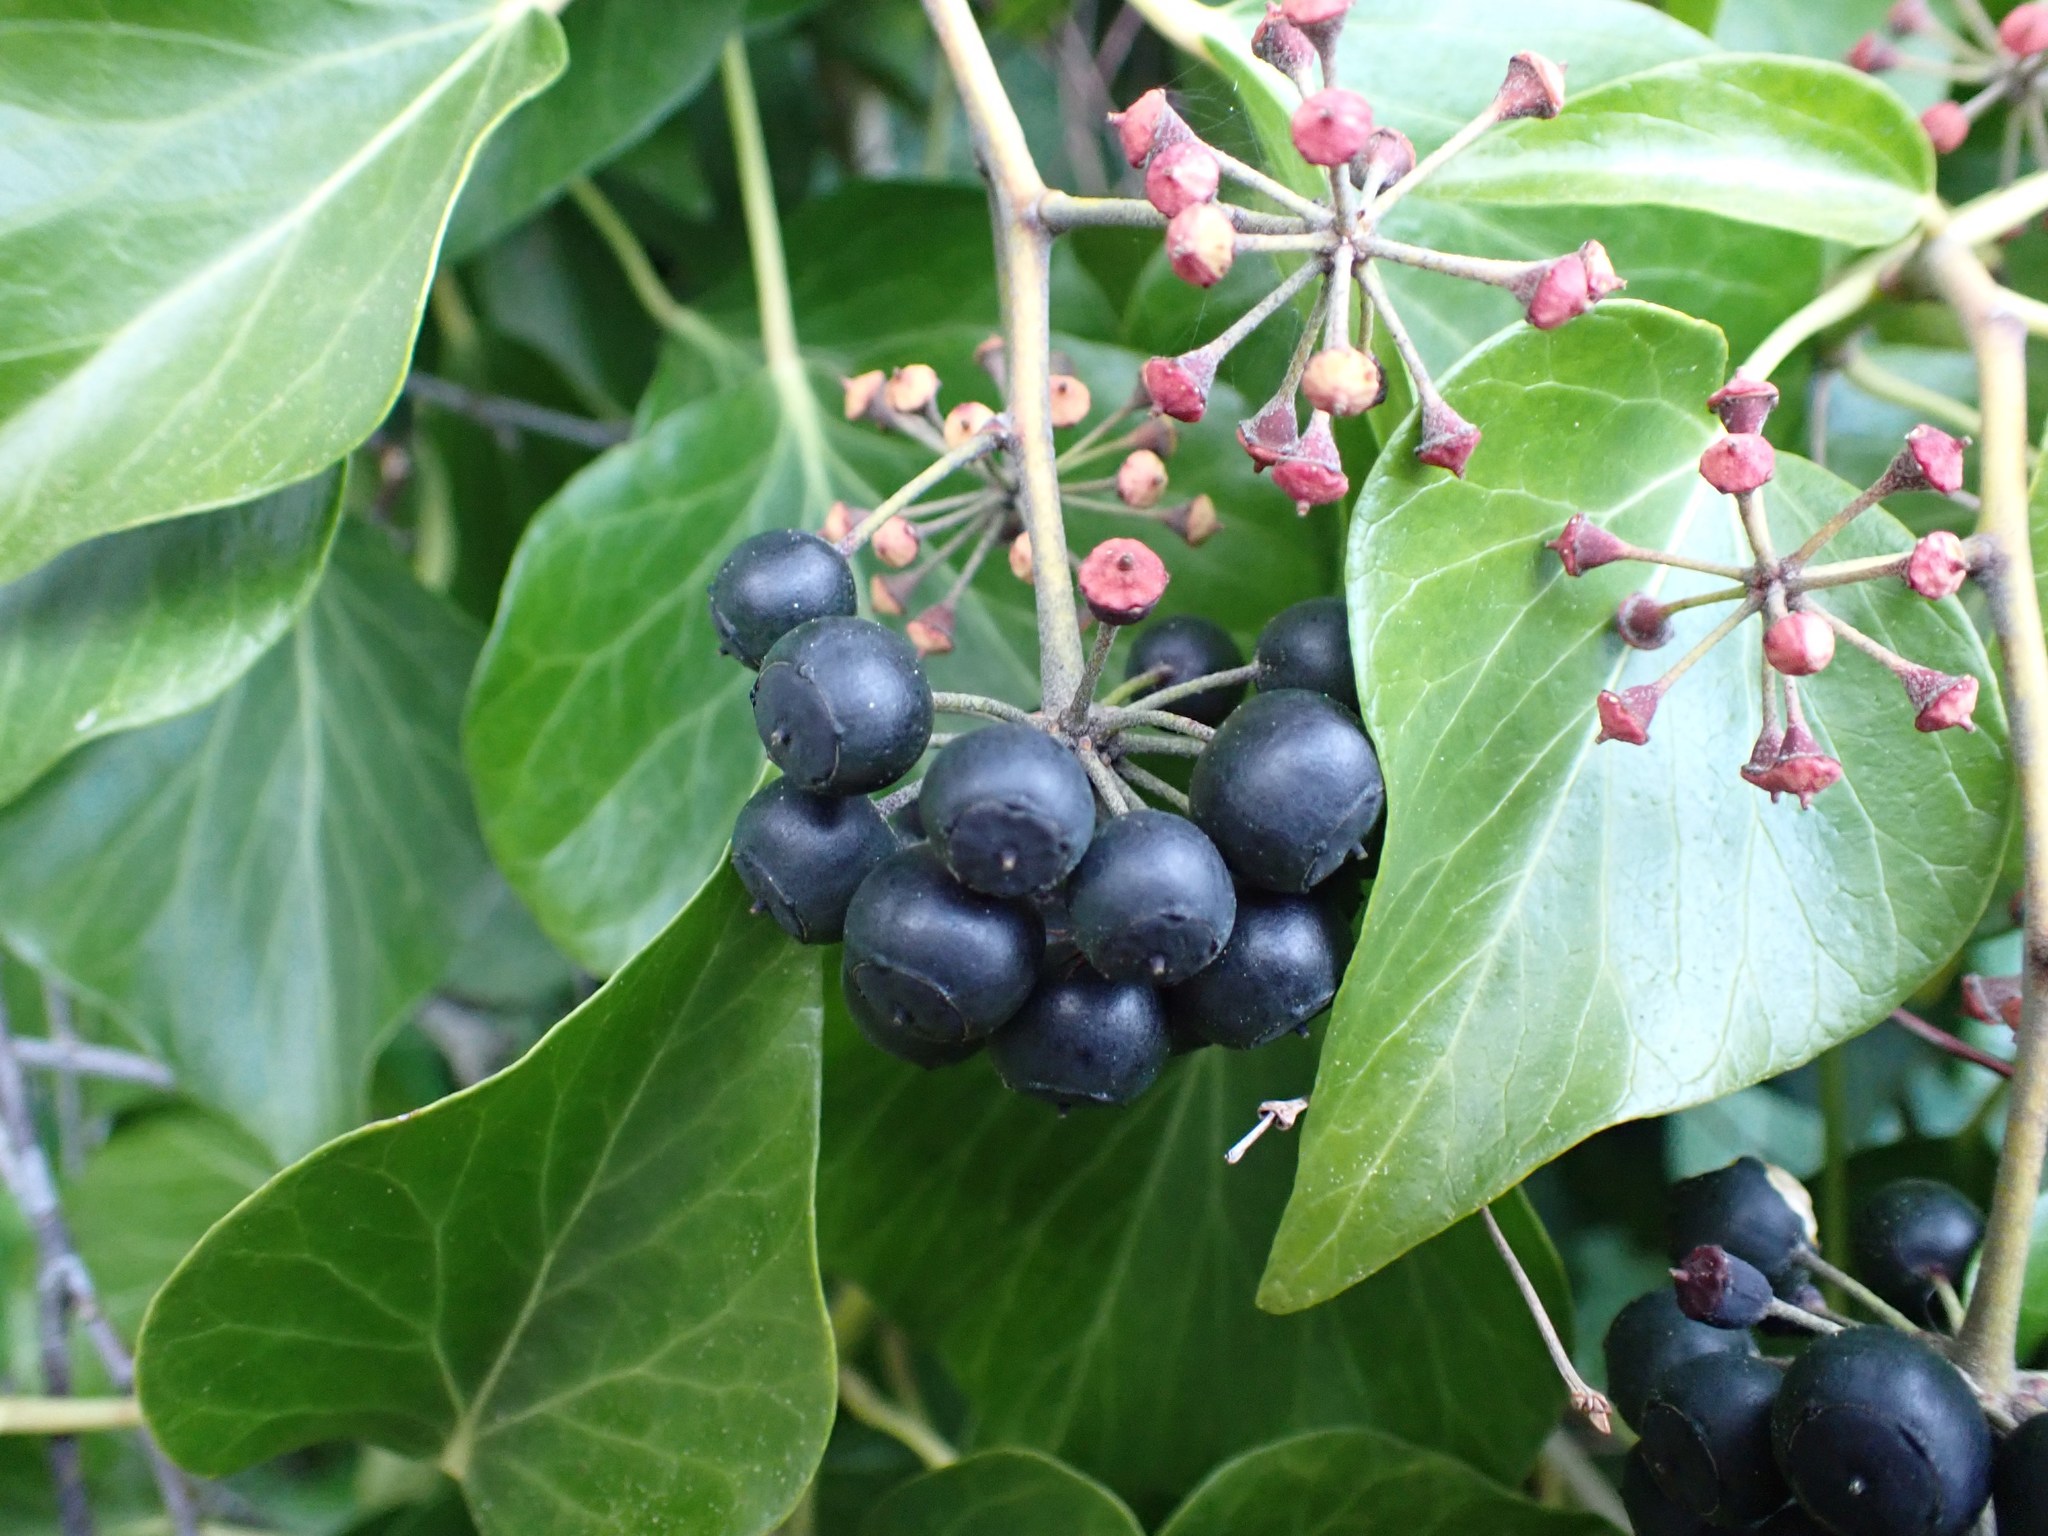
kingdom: Plantae
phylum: Tracheophyta
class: Magnoliopsida
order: Apiales
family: Araliaceae
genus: Hedera
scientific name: Hedera helix
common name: Ivy
